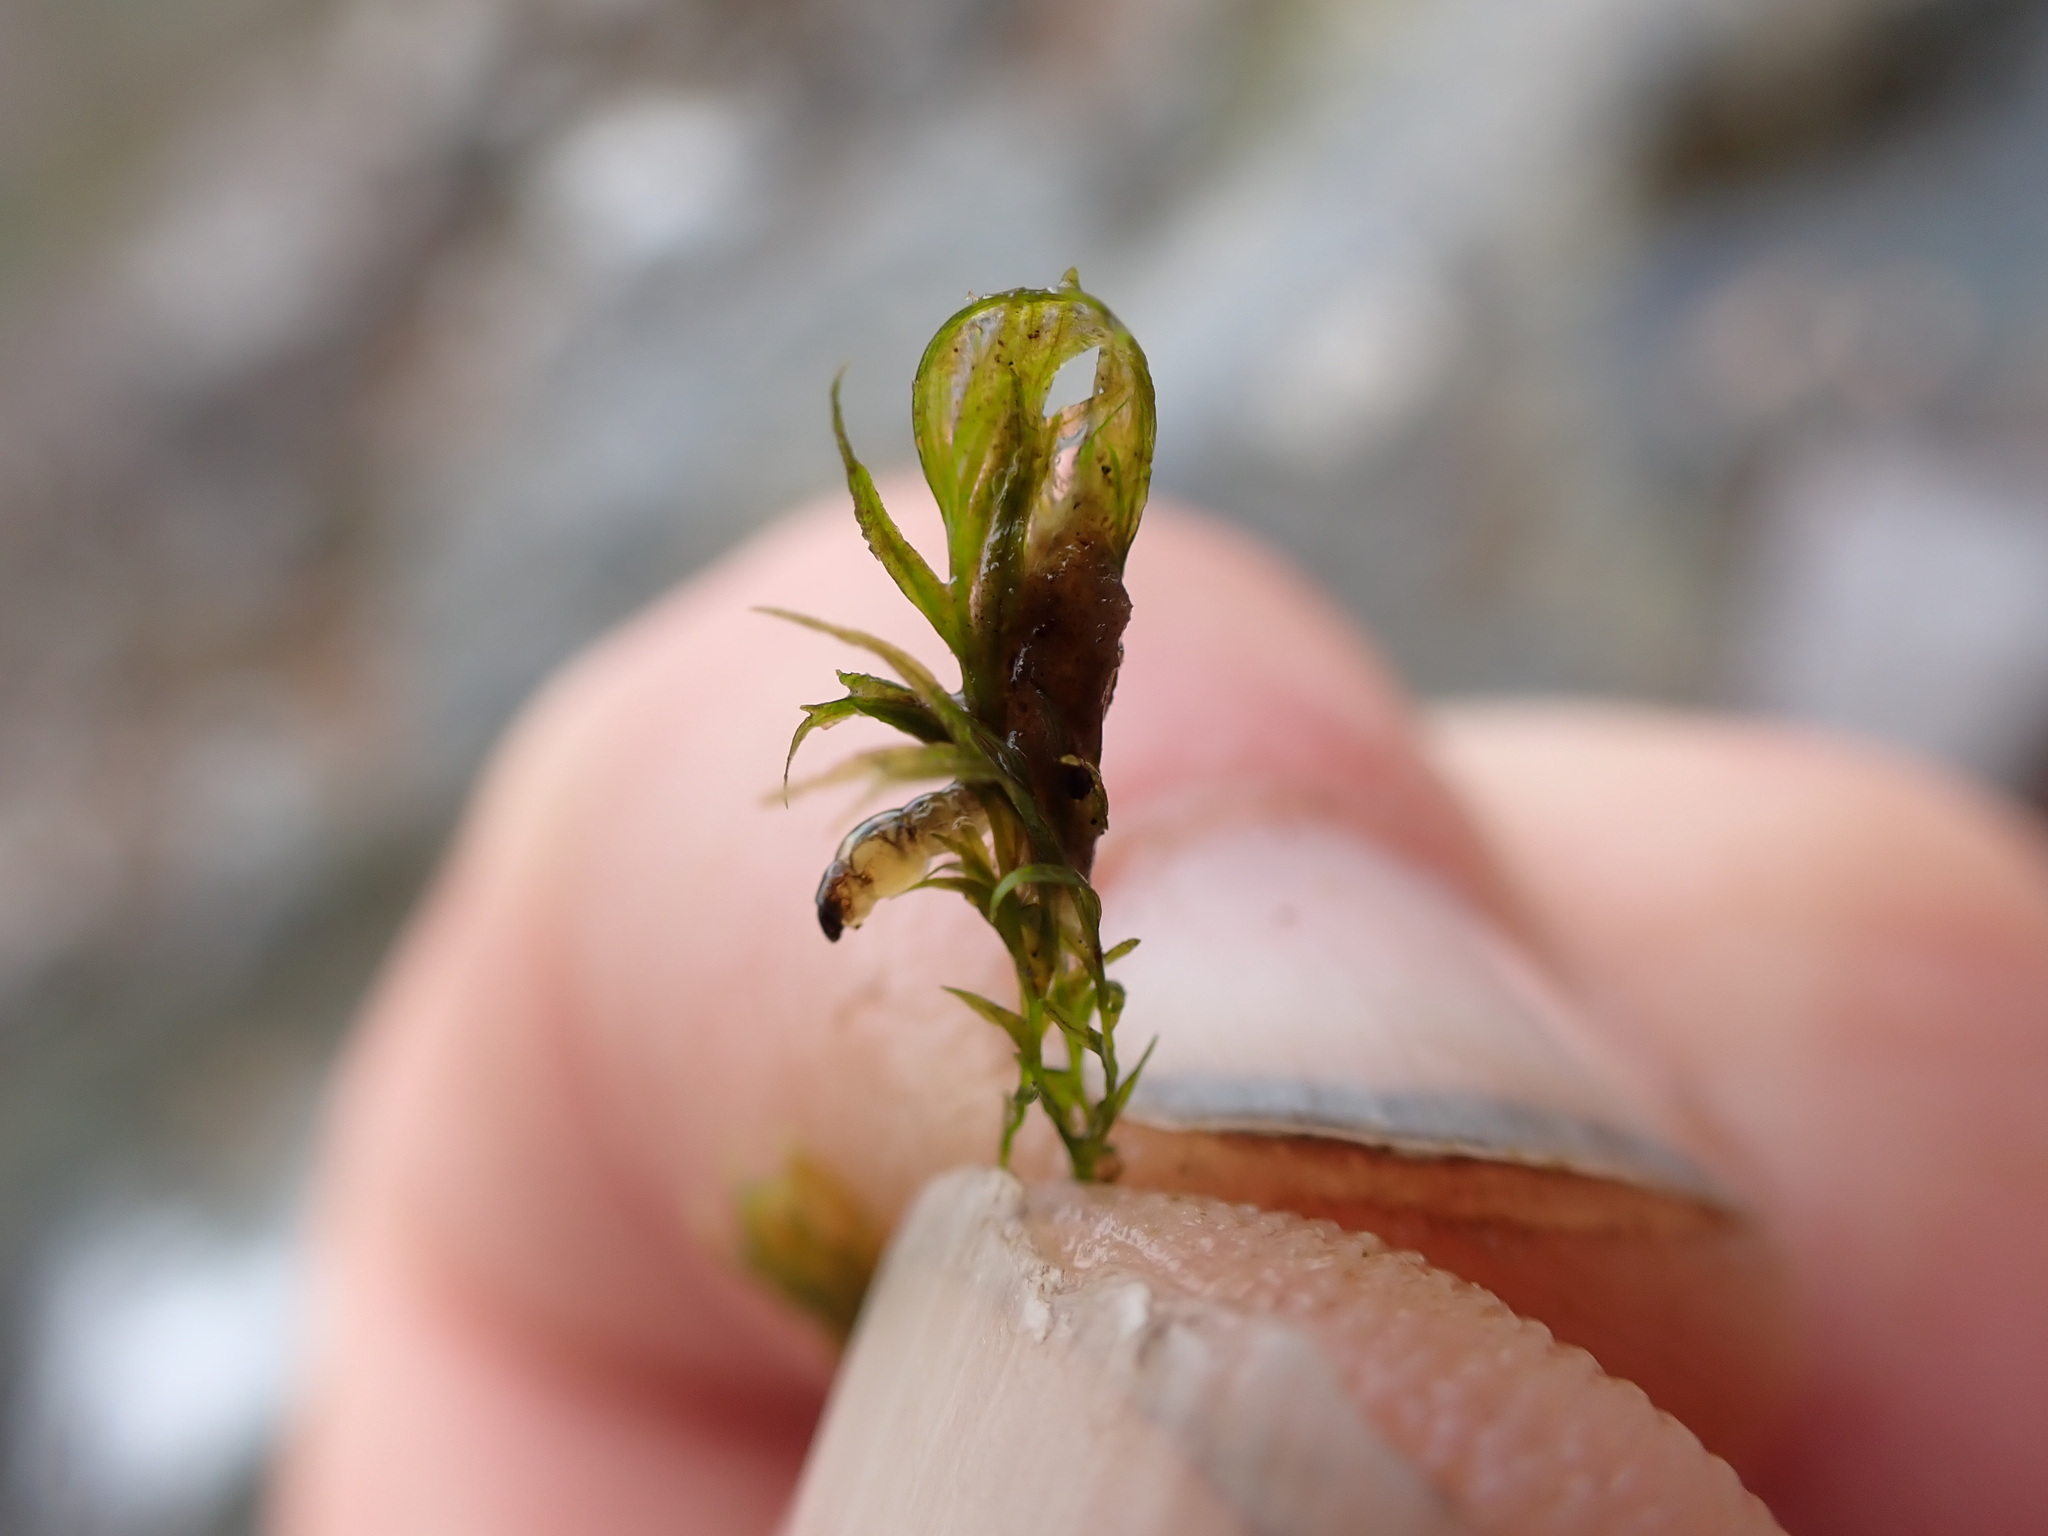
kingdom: Plantae
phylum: Bryophyta
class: Bryopsida
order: Dicranales
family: Fissidentaceae
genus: Fissidens
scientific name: Fissidens fontanus
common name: Fountain pocket-moss
